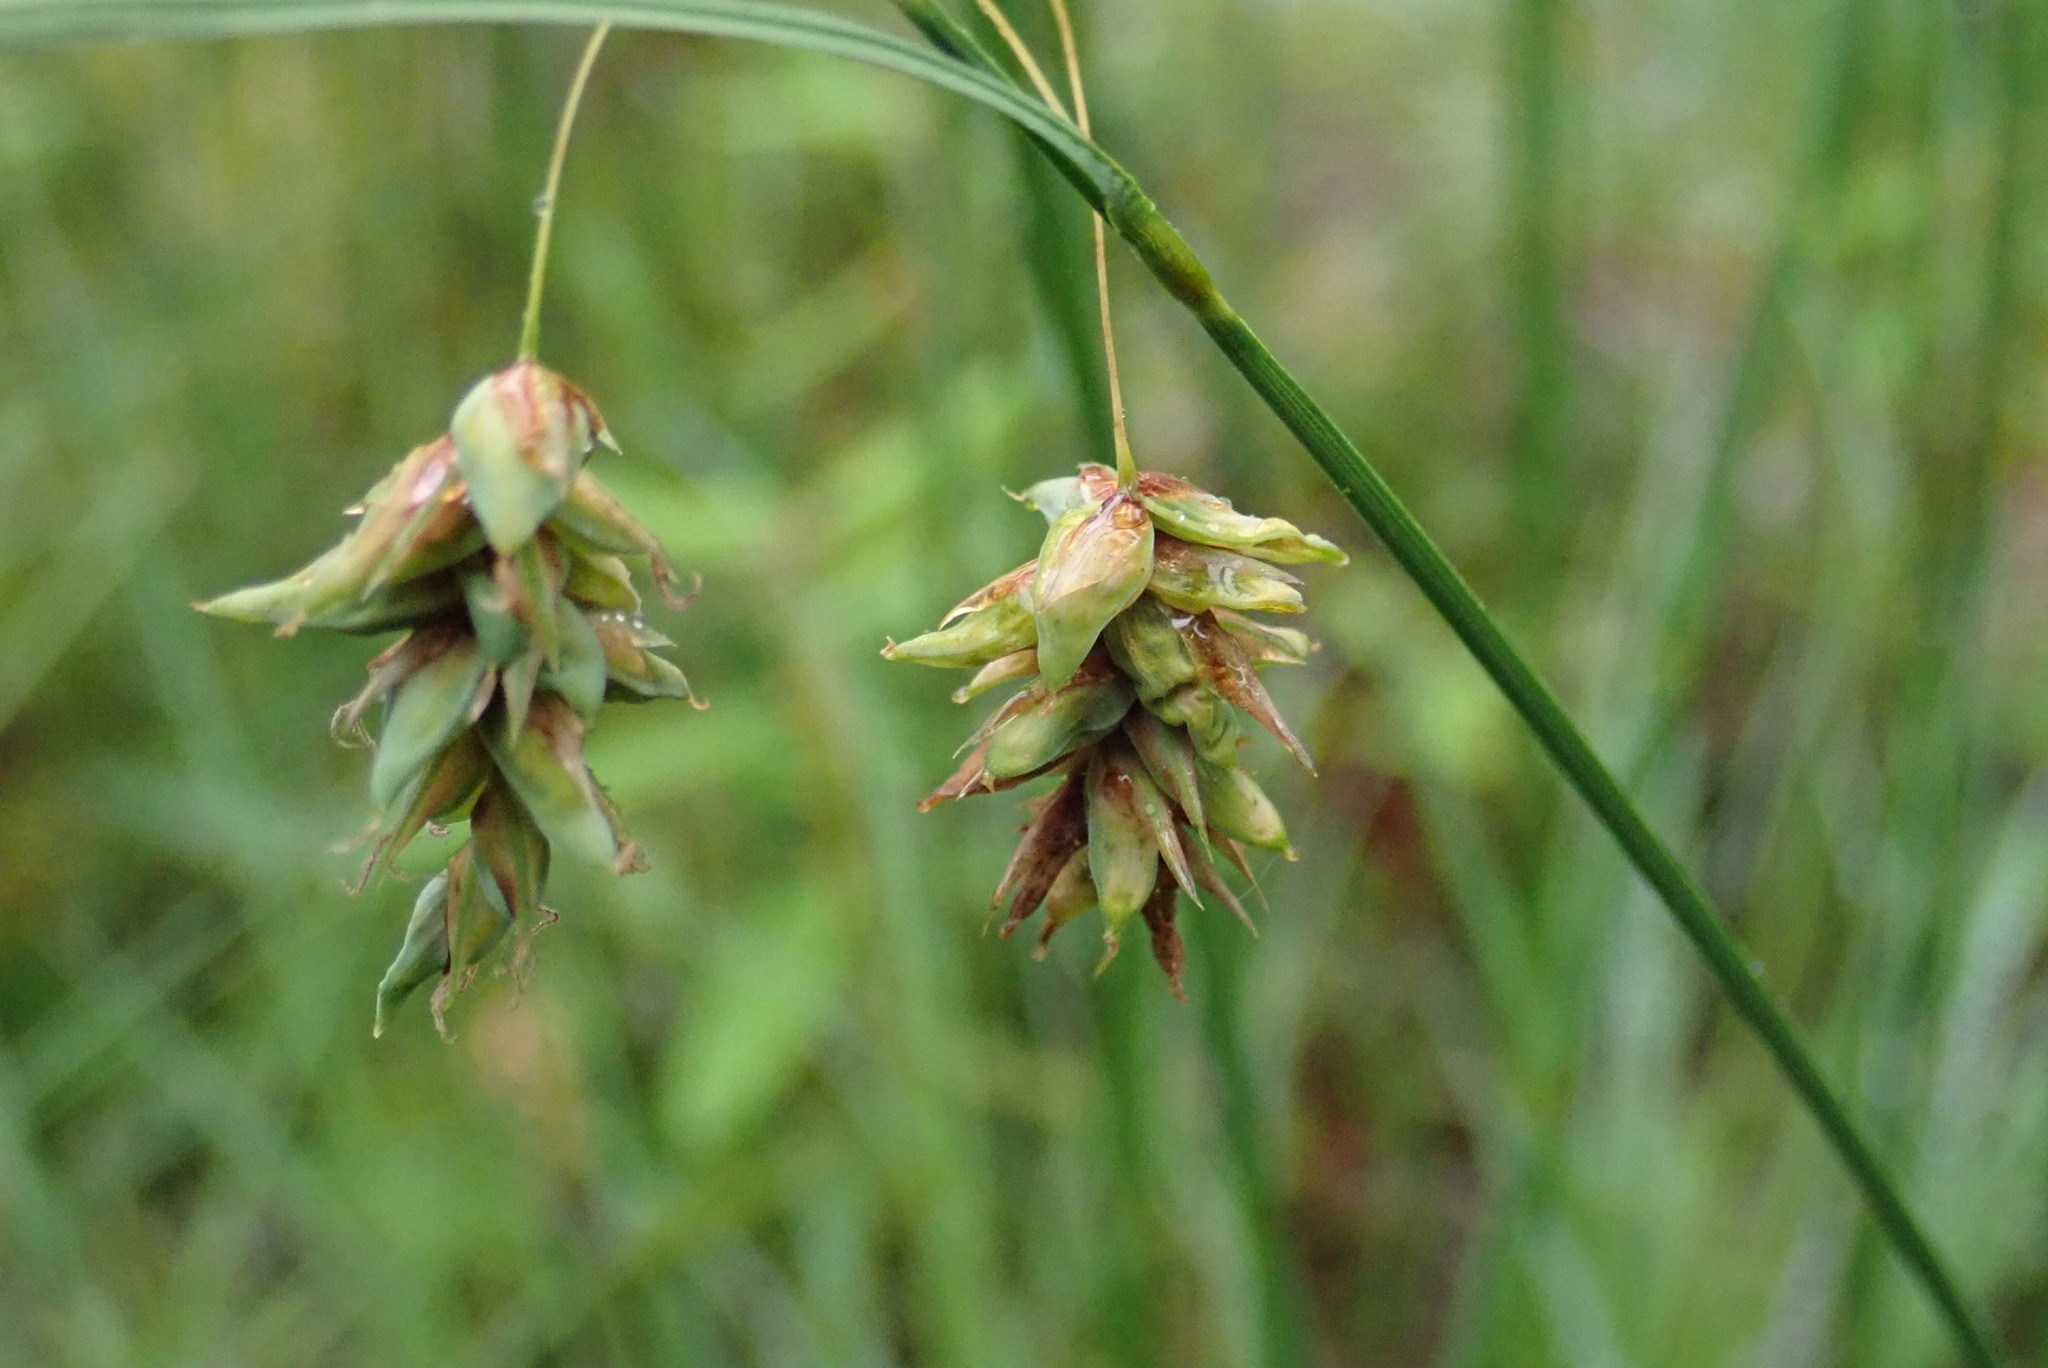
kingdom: Plantae
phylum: Tracheophyta
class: Liliopsida
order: Poales
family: Cyperaceae
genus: Carex
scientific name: Carex magellanica
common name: Bog sedge
